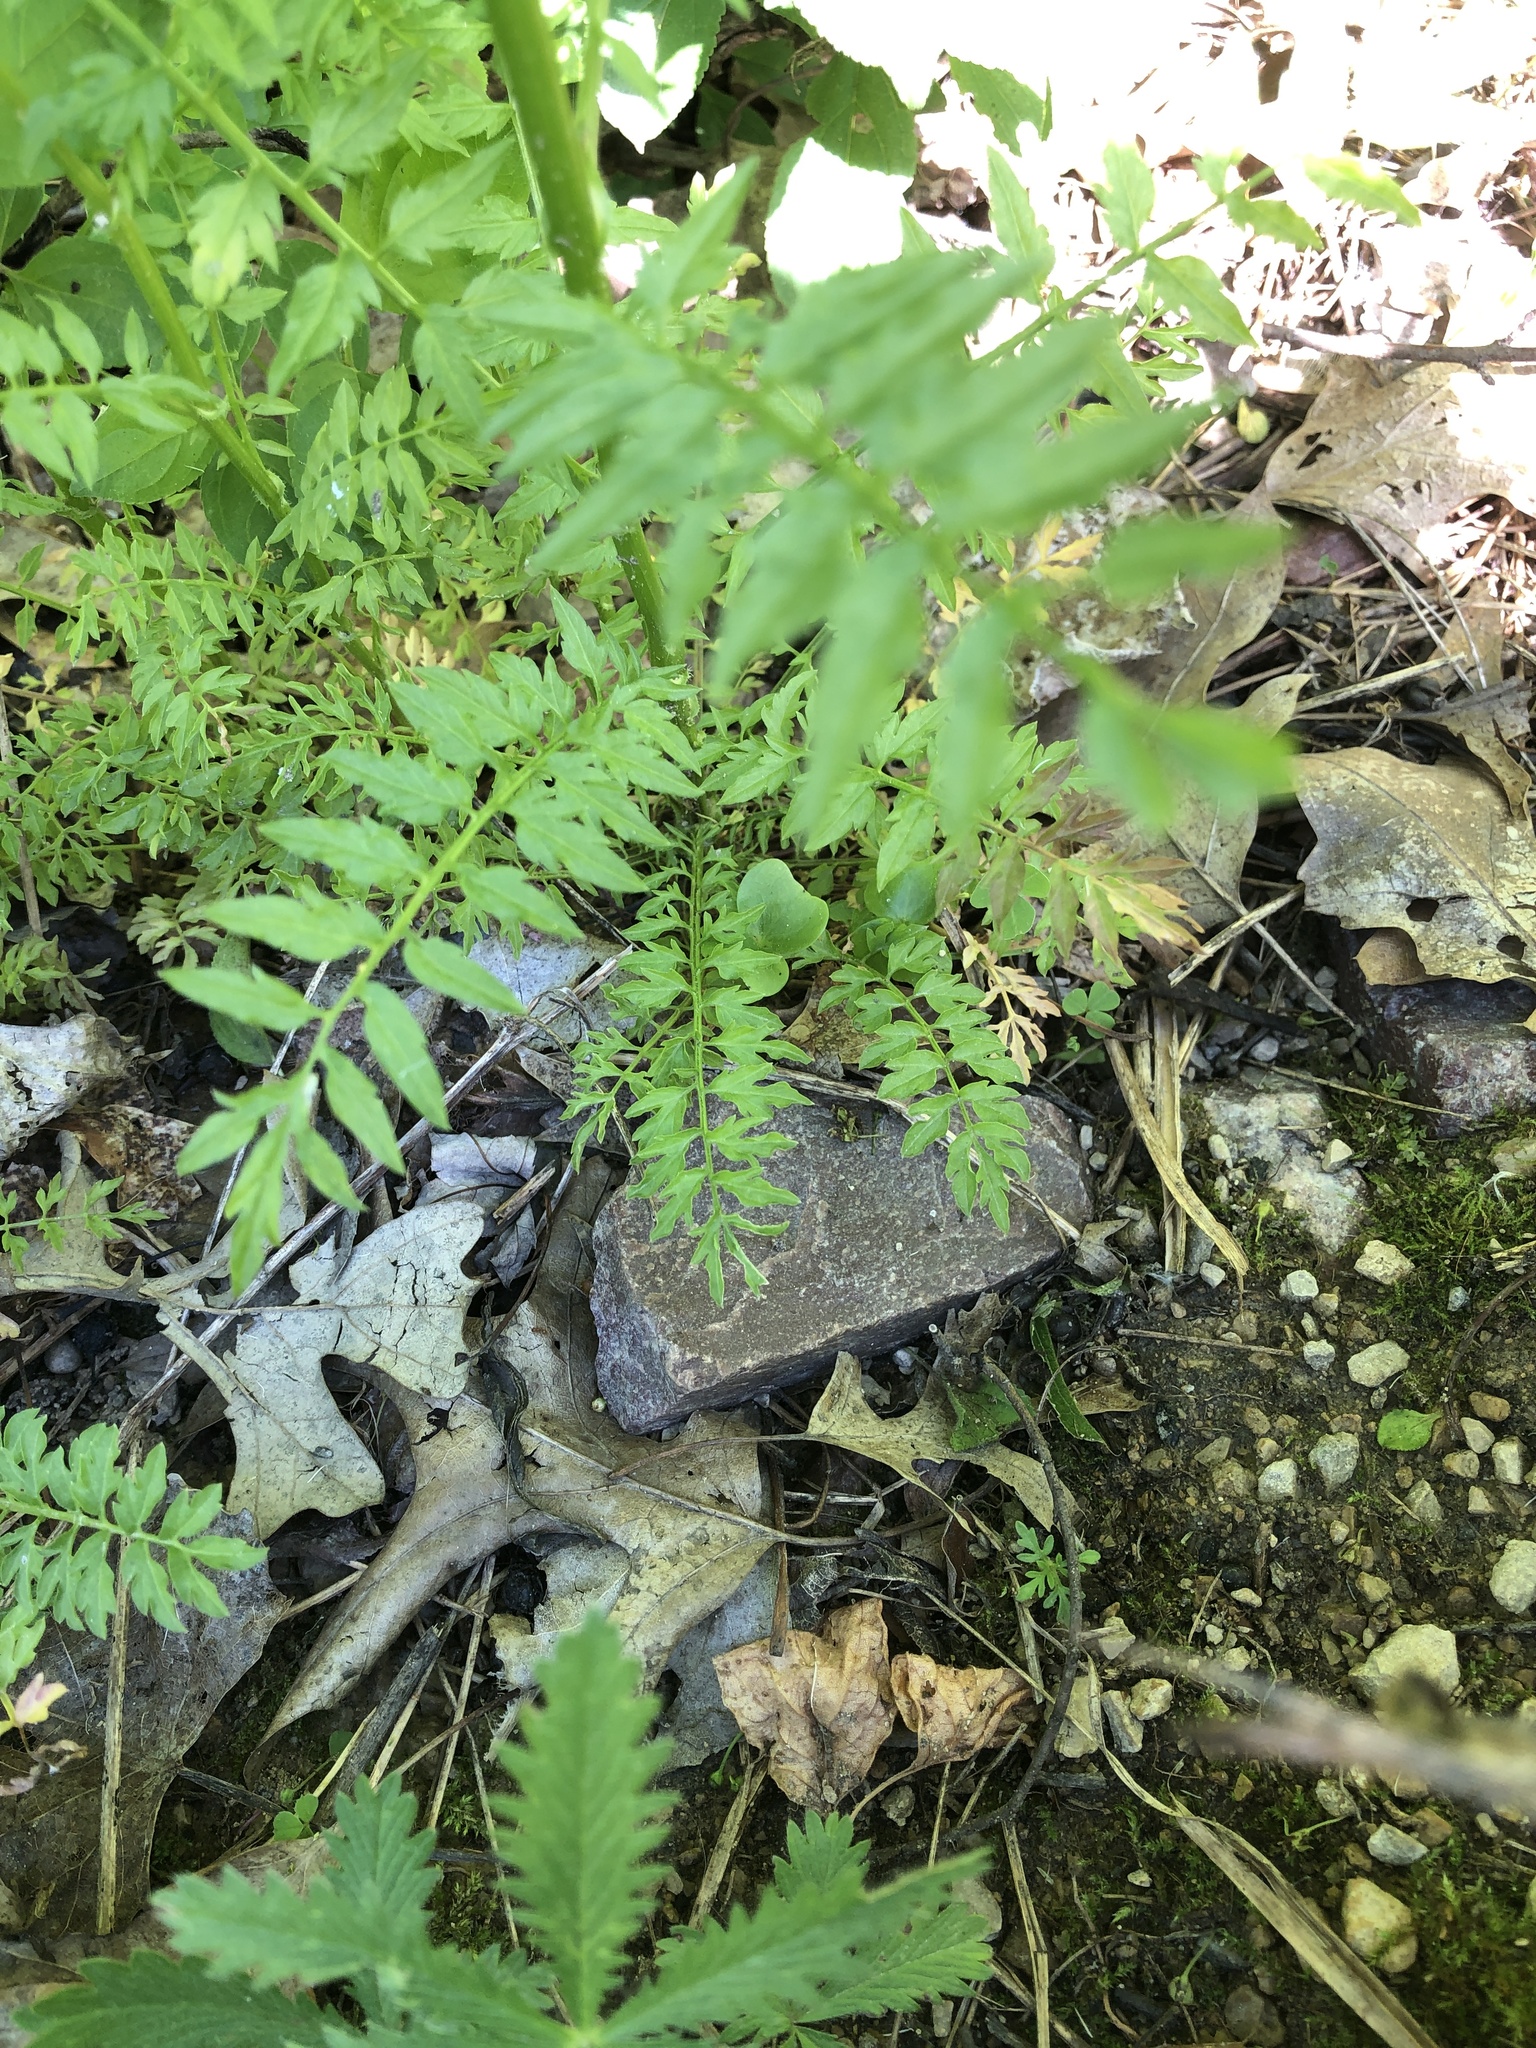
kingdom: Plantae
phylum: Tracheophyta
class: Magnoliopsida
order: Brassicales
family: Brassicaceae
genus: Cardamine
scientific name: Cardamine impatiens
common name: Narrow-leaved bitter-cress
